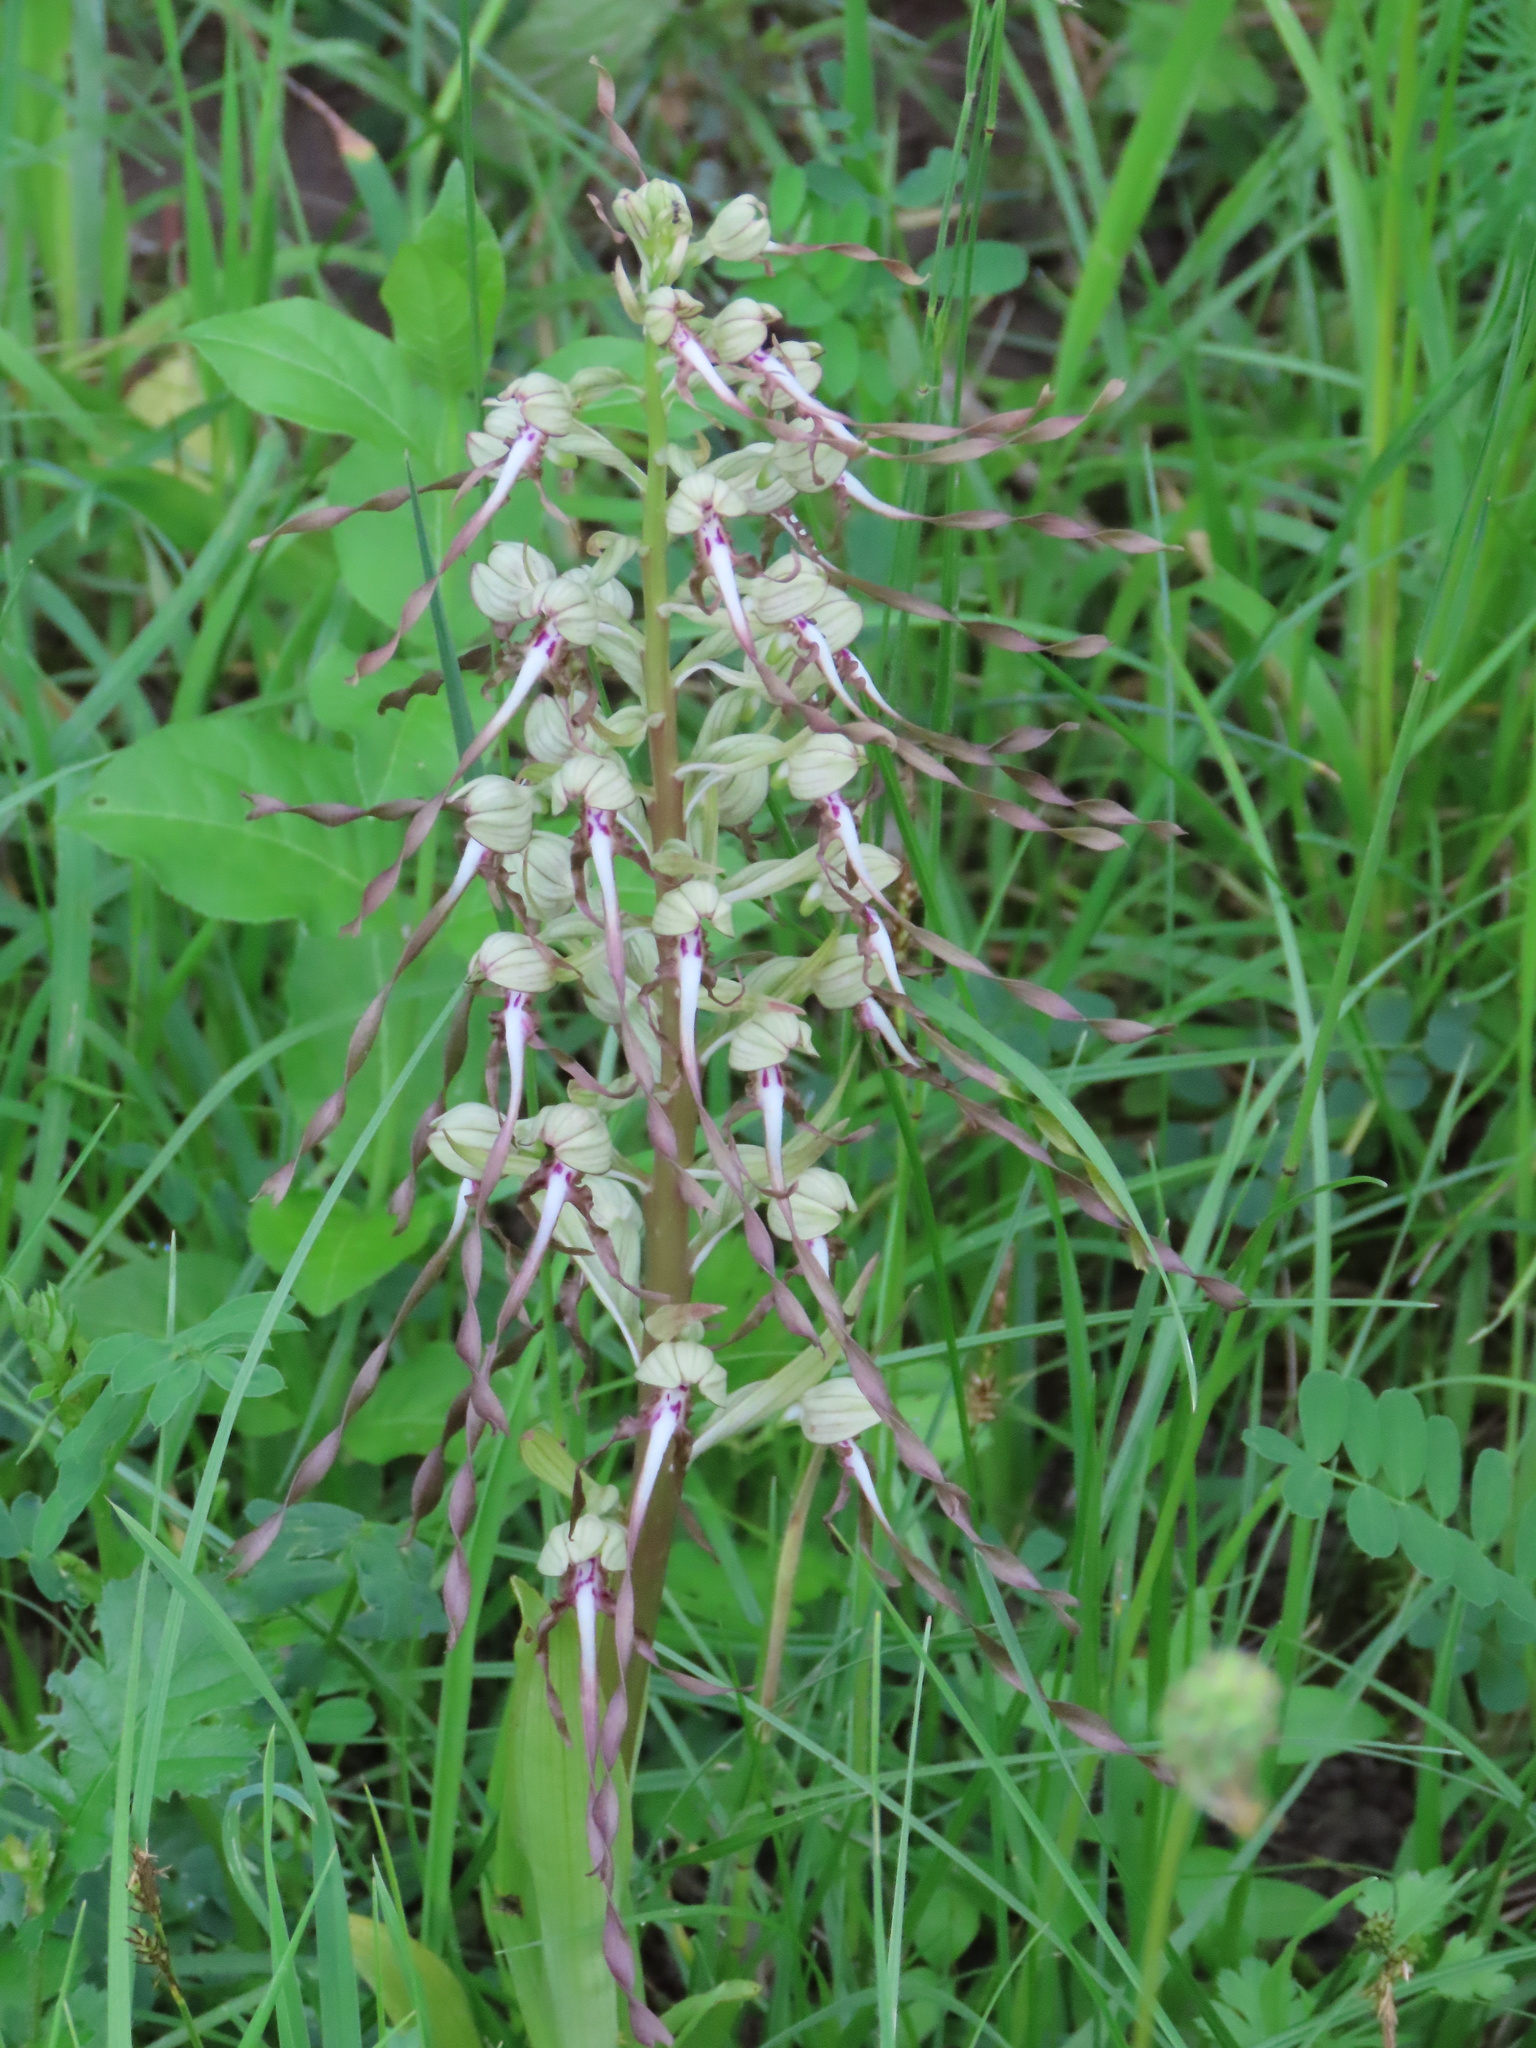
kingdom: Plantae
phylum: Tracheophyta
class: Liliopsida
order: Asparagales
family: Orchidaceae
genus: Himantoglossum
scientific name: Himantoglossum hircinum
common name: Lizard orchid
